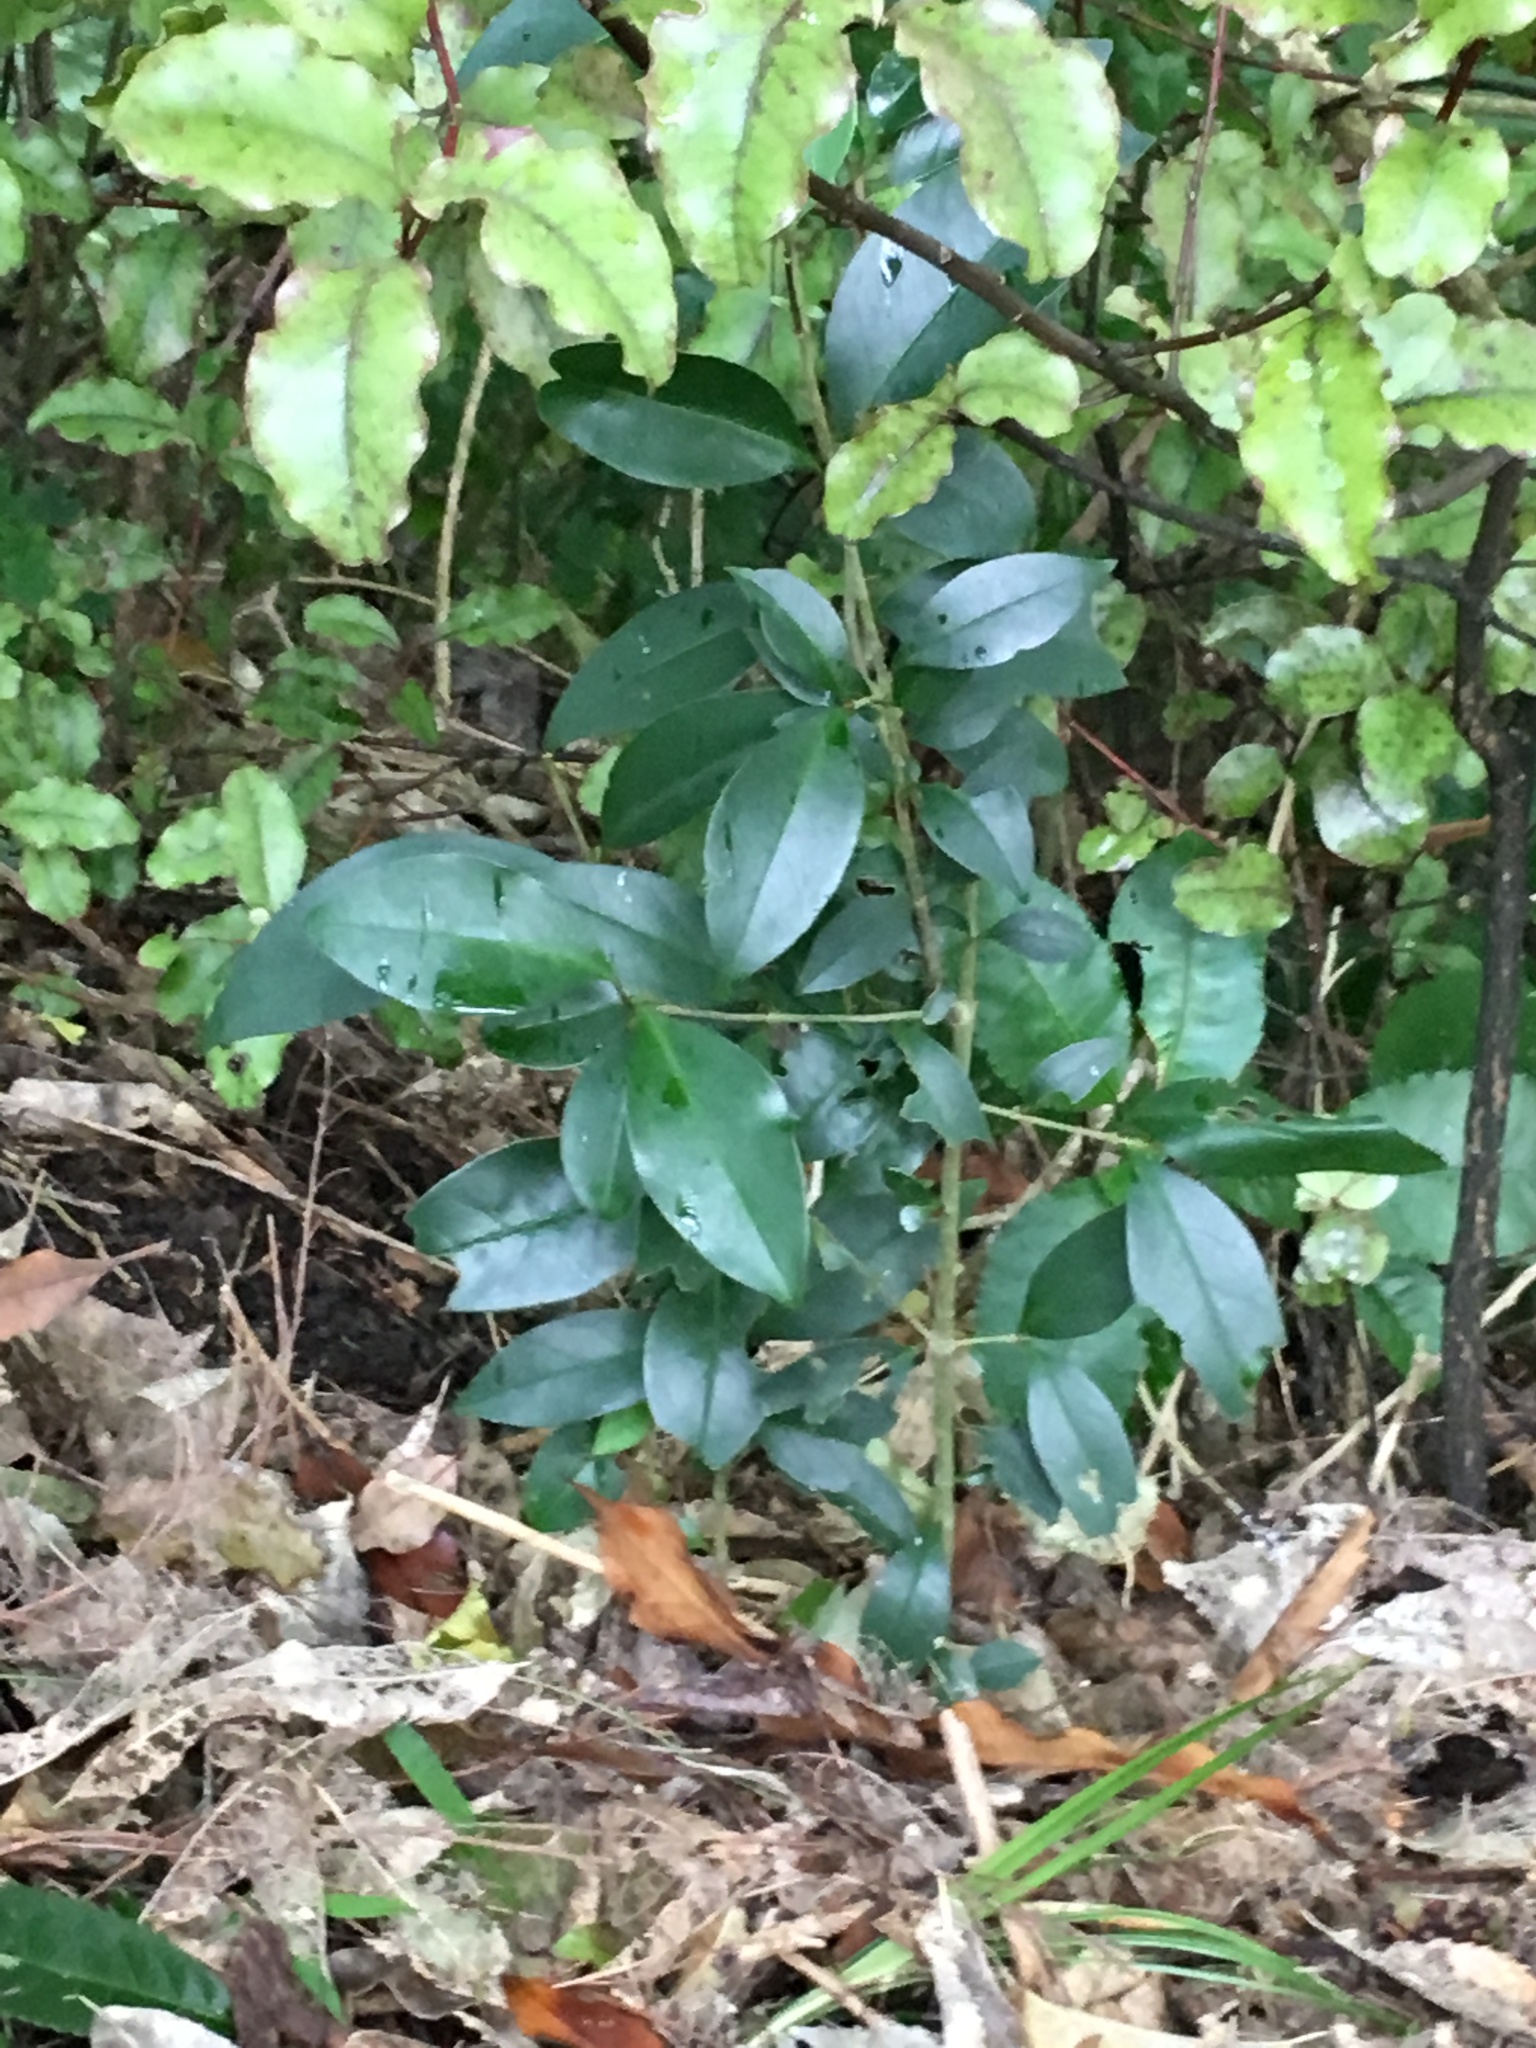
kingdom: Plantae
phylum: Tracheophyta
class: Magnoliopsida
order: Lamiales
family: Oleaceae
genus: Ligustrum
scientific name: Ligustrum lucidum
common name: Glossy privet
